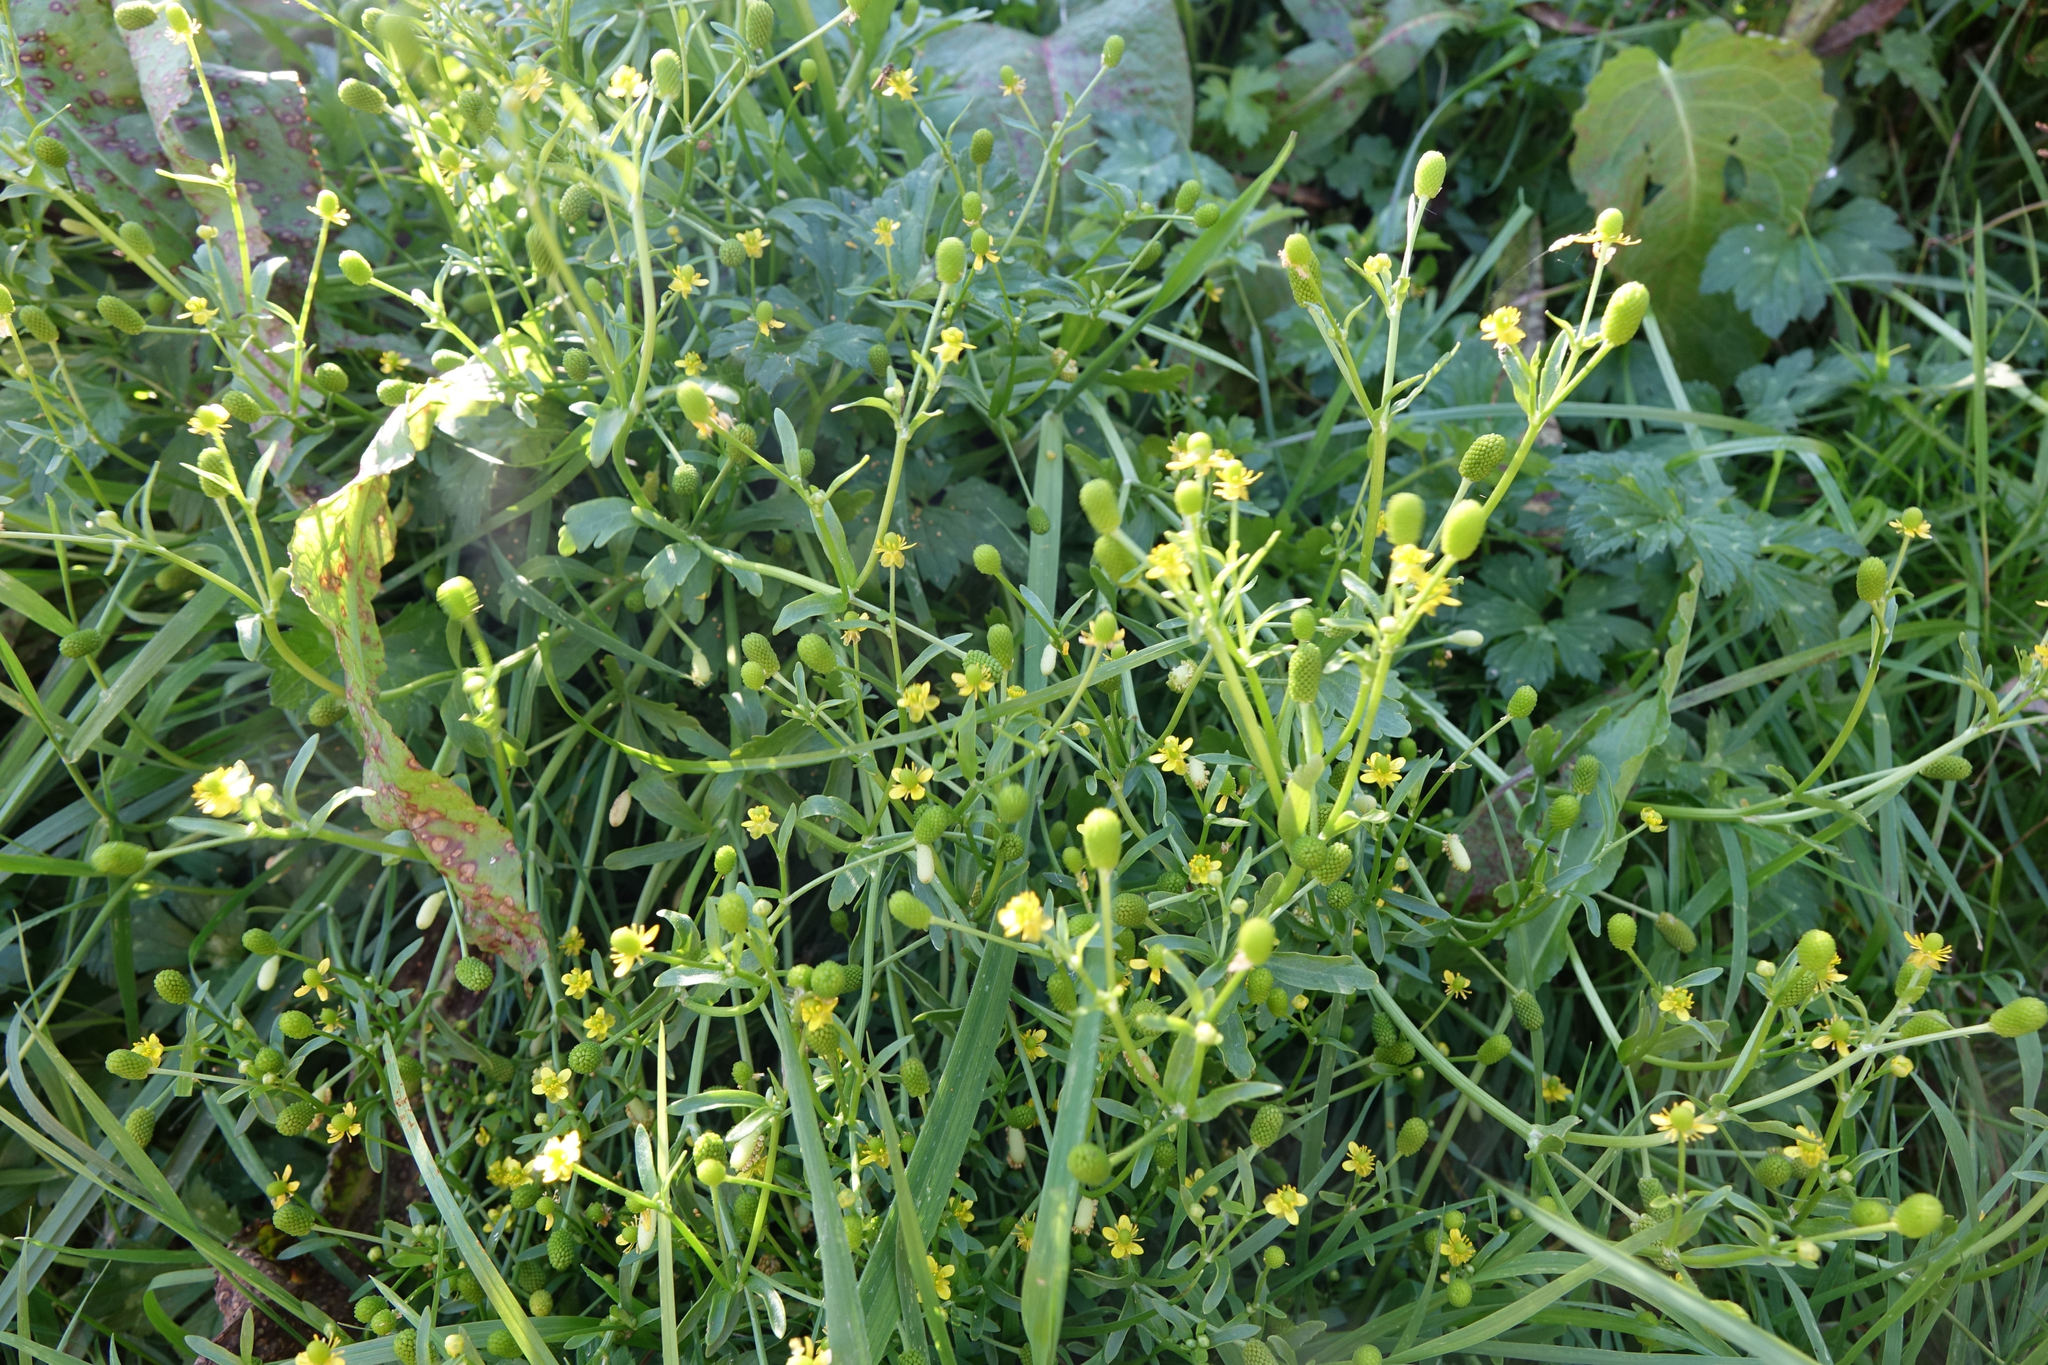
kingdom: Plantae
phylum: Tracheophyta
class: Magnoliopsida
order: Ranunculales
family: Ranunculaceae
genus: Ranunculus
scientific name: Ranunculus sceleratus
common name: Celery-leaved buttercup
